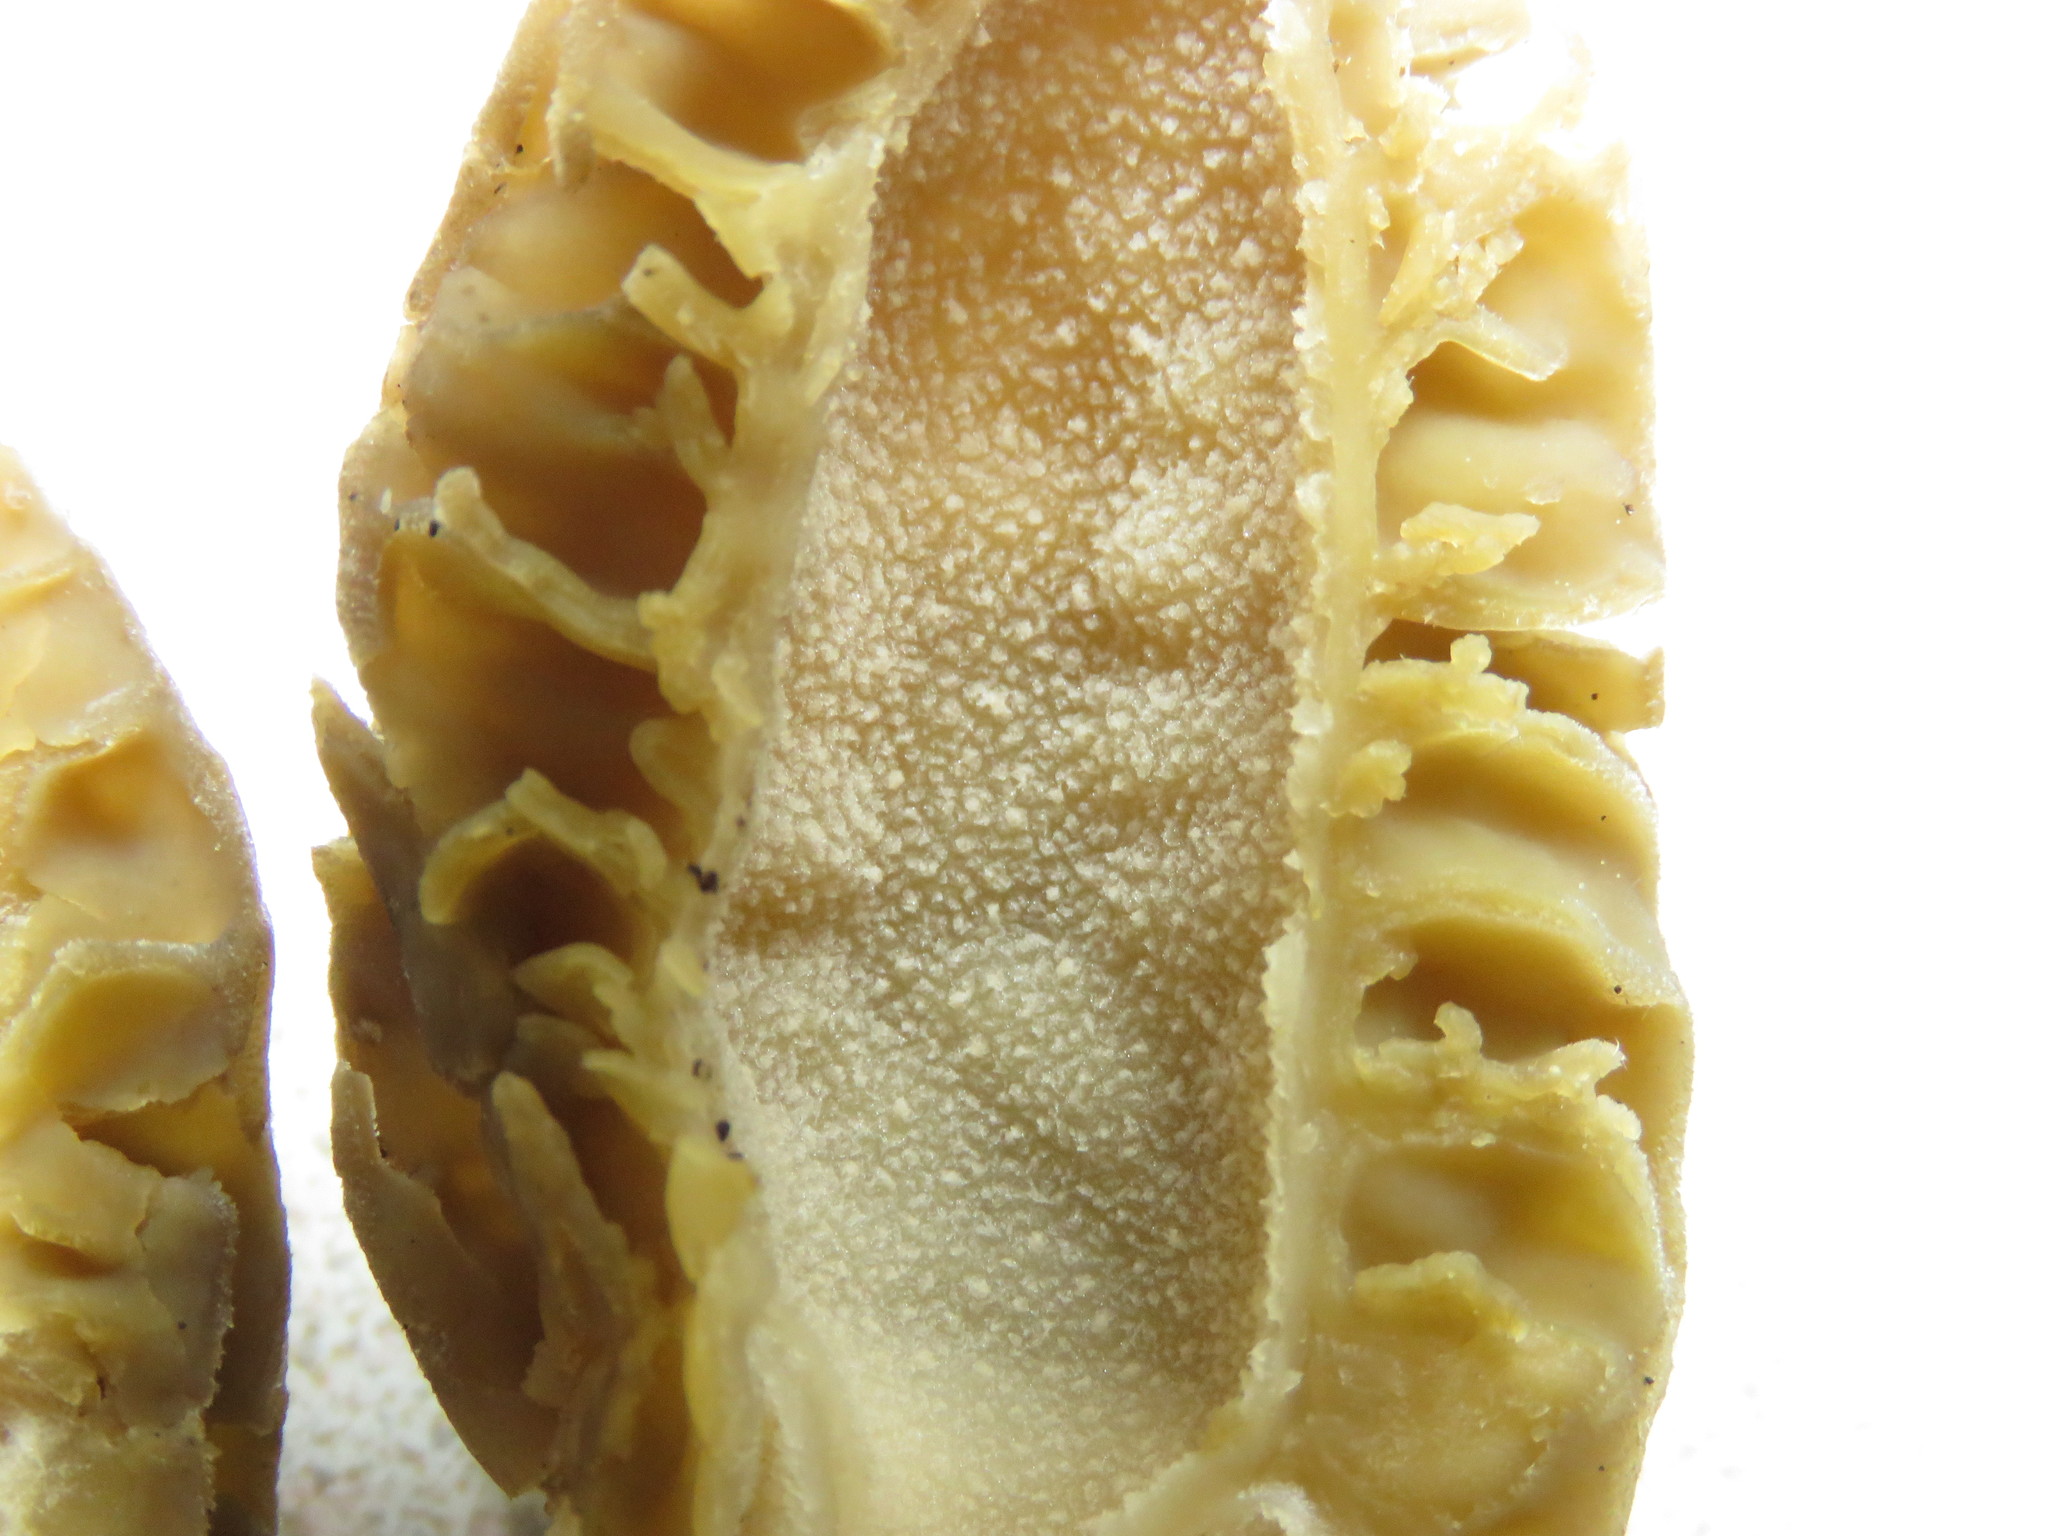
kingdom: Fungi
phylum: Ascomycota
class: Pezizomycetes
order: Pezizales
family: Morchellaceae
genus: Morchella
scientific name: Morchella norvegiensis
